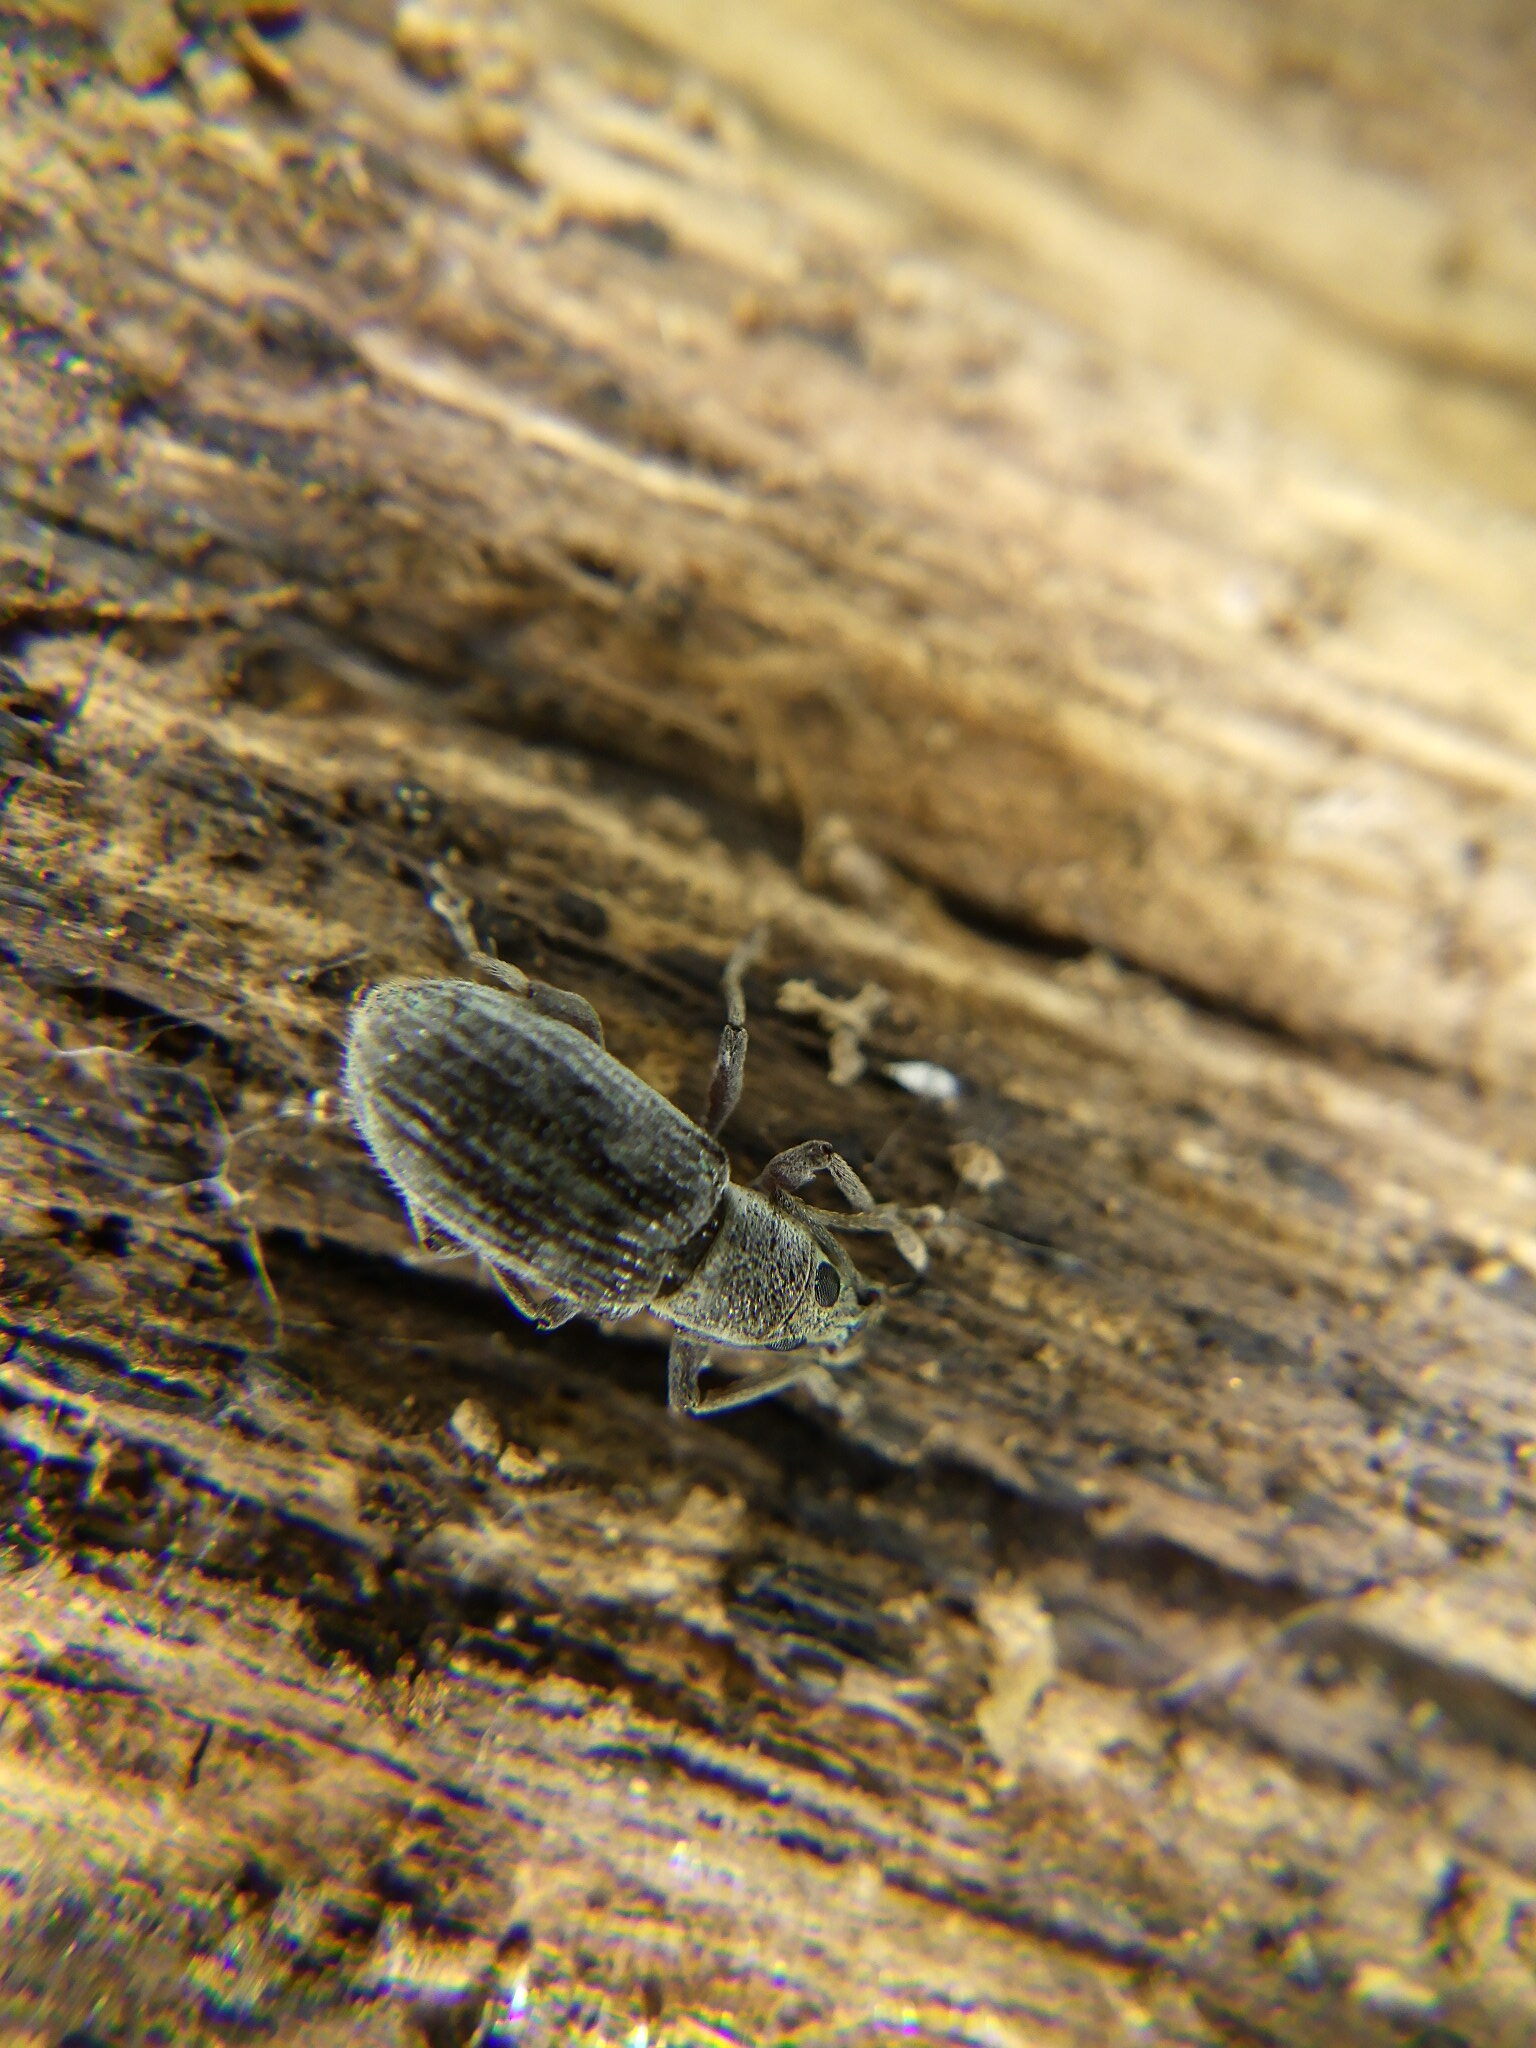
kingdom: Animalia
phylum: Arthropoda
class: Insecta
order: Coleoptera
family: Curculionidae
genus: Cyrtepistomus
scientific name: Cyrtepistomus castaneus
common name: Weevil
